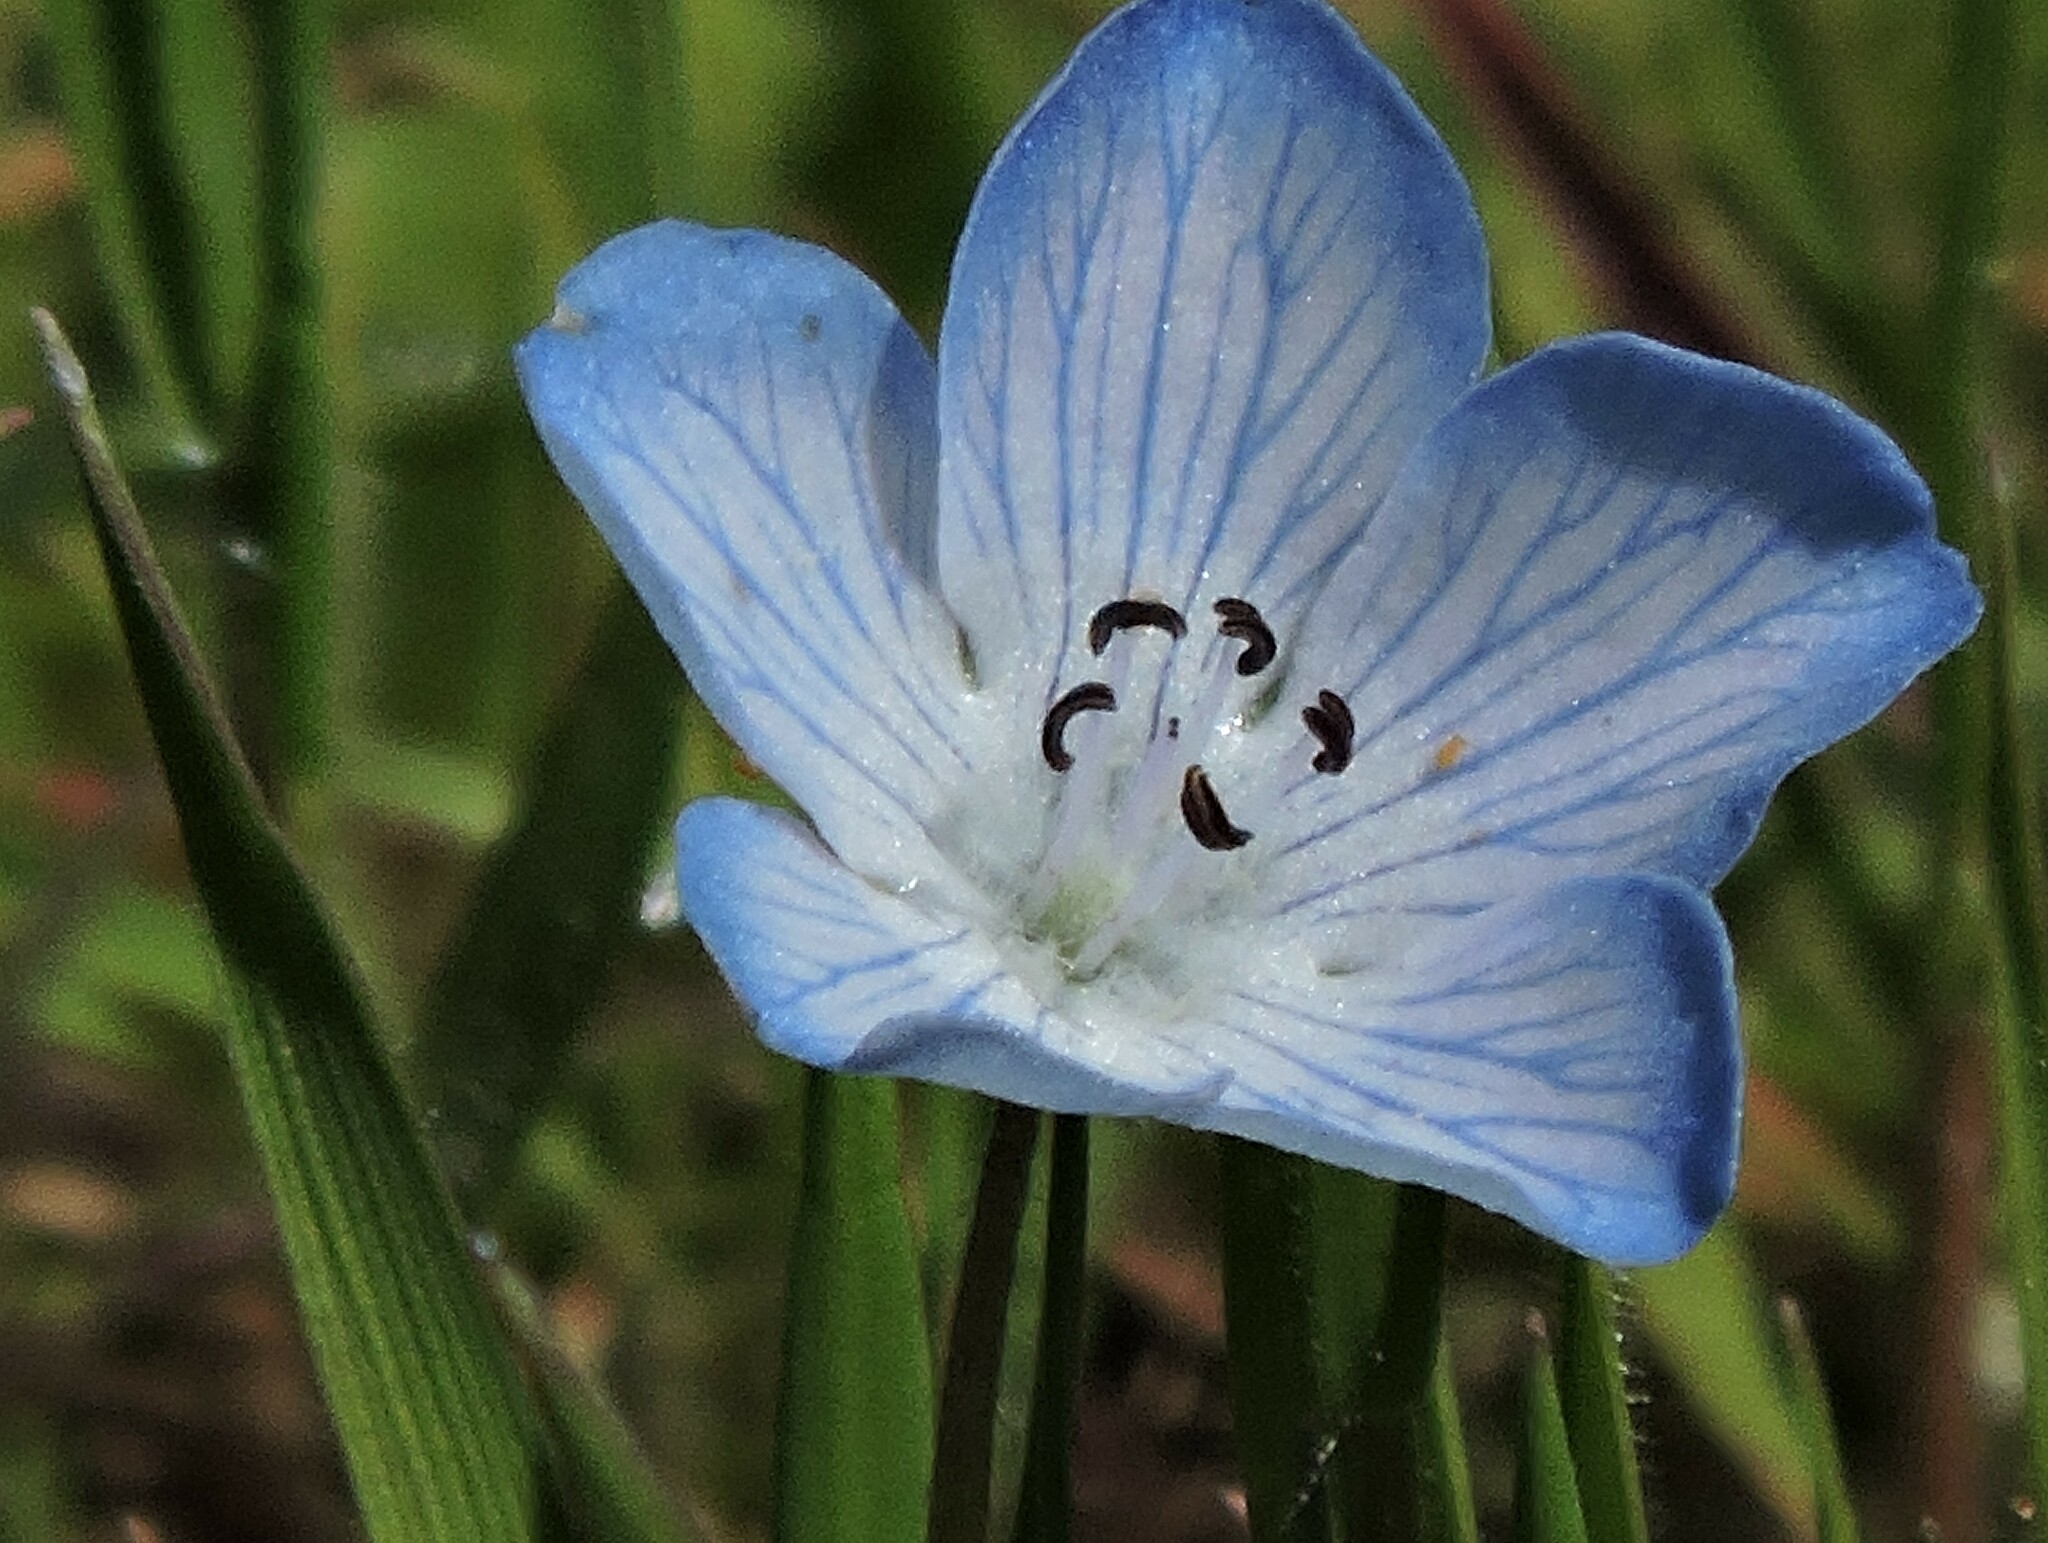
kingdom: Plantae
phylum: Tracheophyta
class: Magnoliopsida
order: Boraginales
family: Hydrophyllaceae
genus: Nemophila
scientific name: Nemophila menziesii
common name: Baby's-blue-eyes
